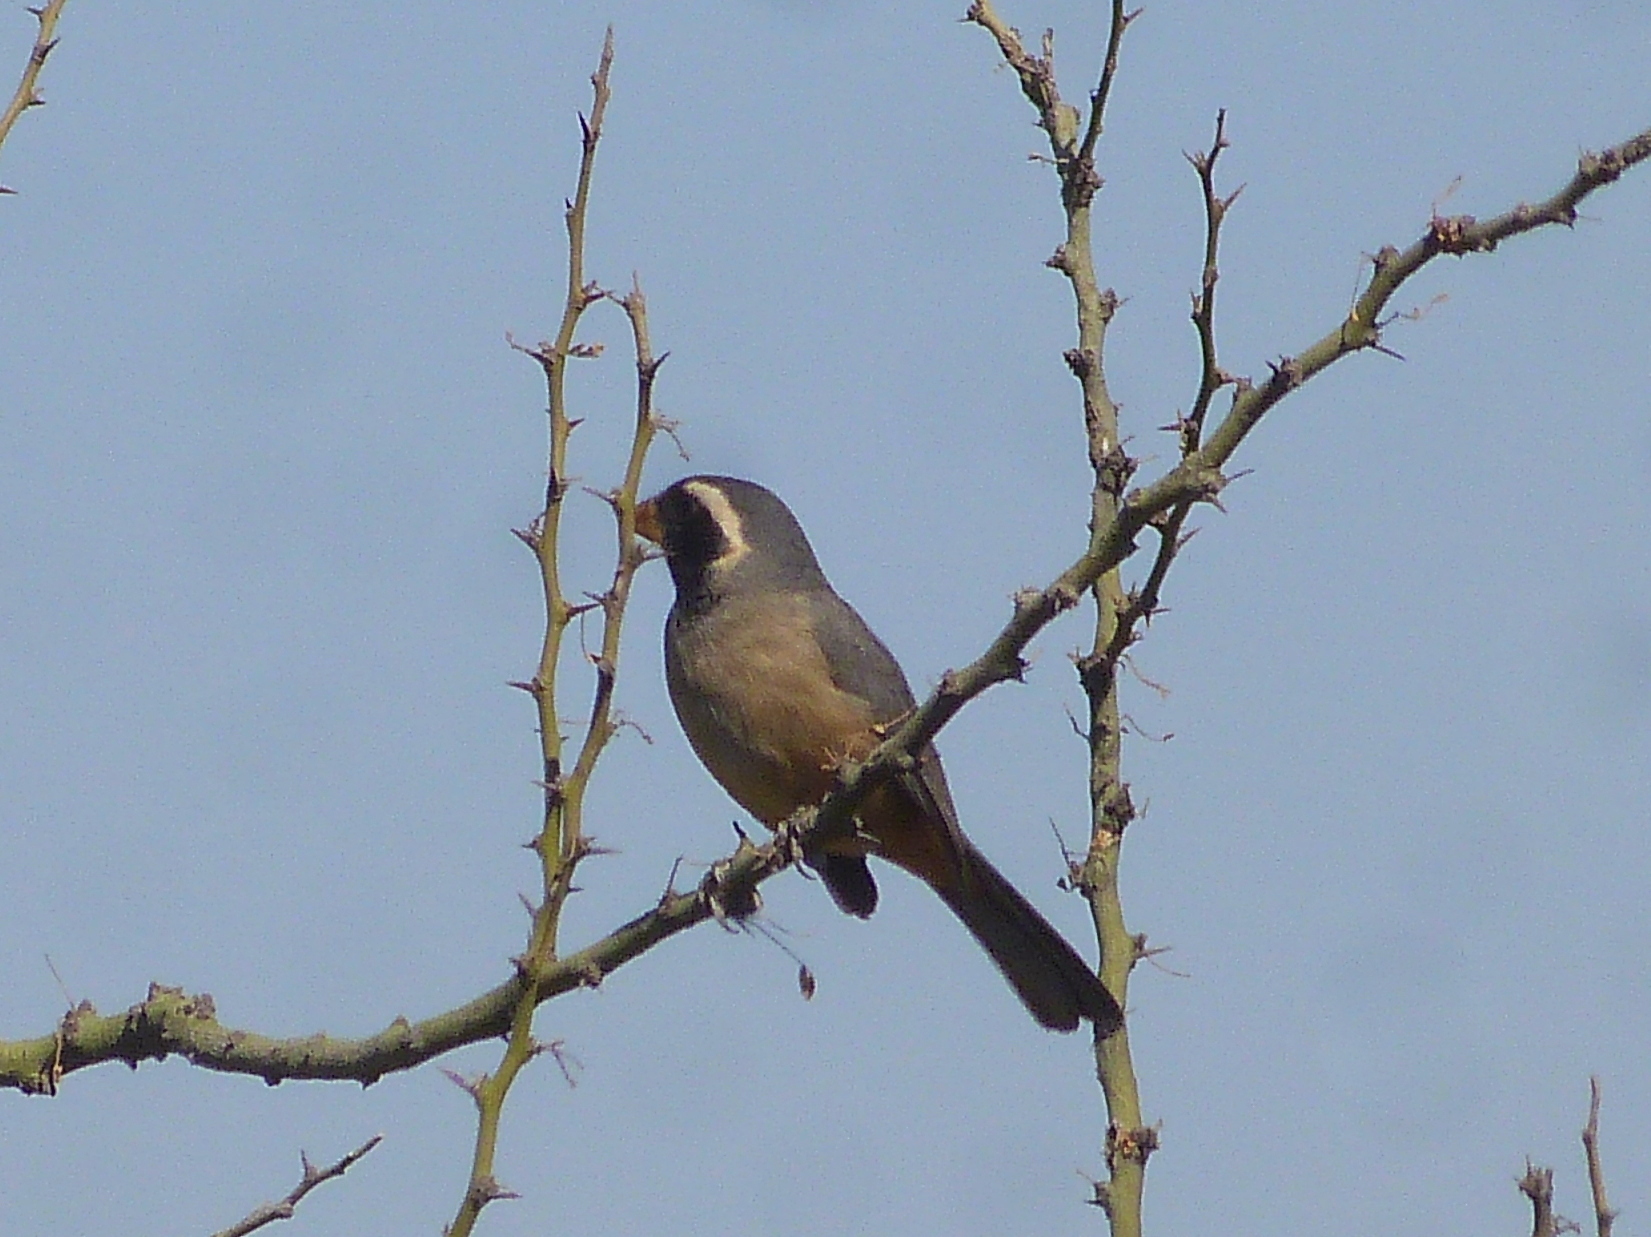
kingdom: Animalia
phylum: Chordata
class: Aves
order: Passeriformes
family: Thraupidae
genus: Saltator
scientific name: Saltator aurantiirostris
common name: Golden-billed saltator
